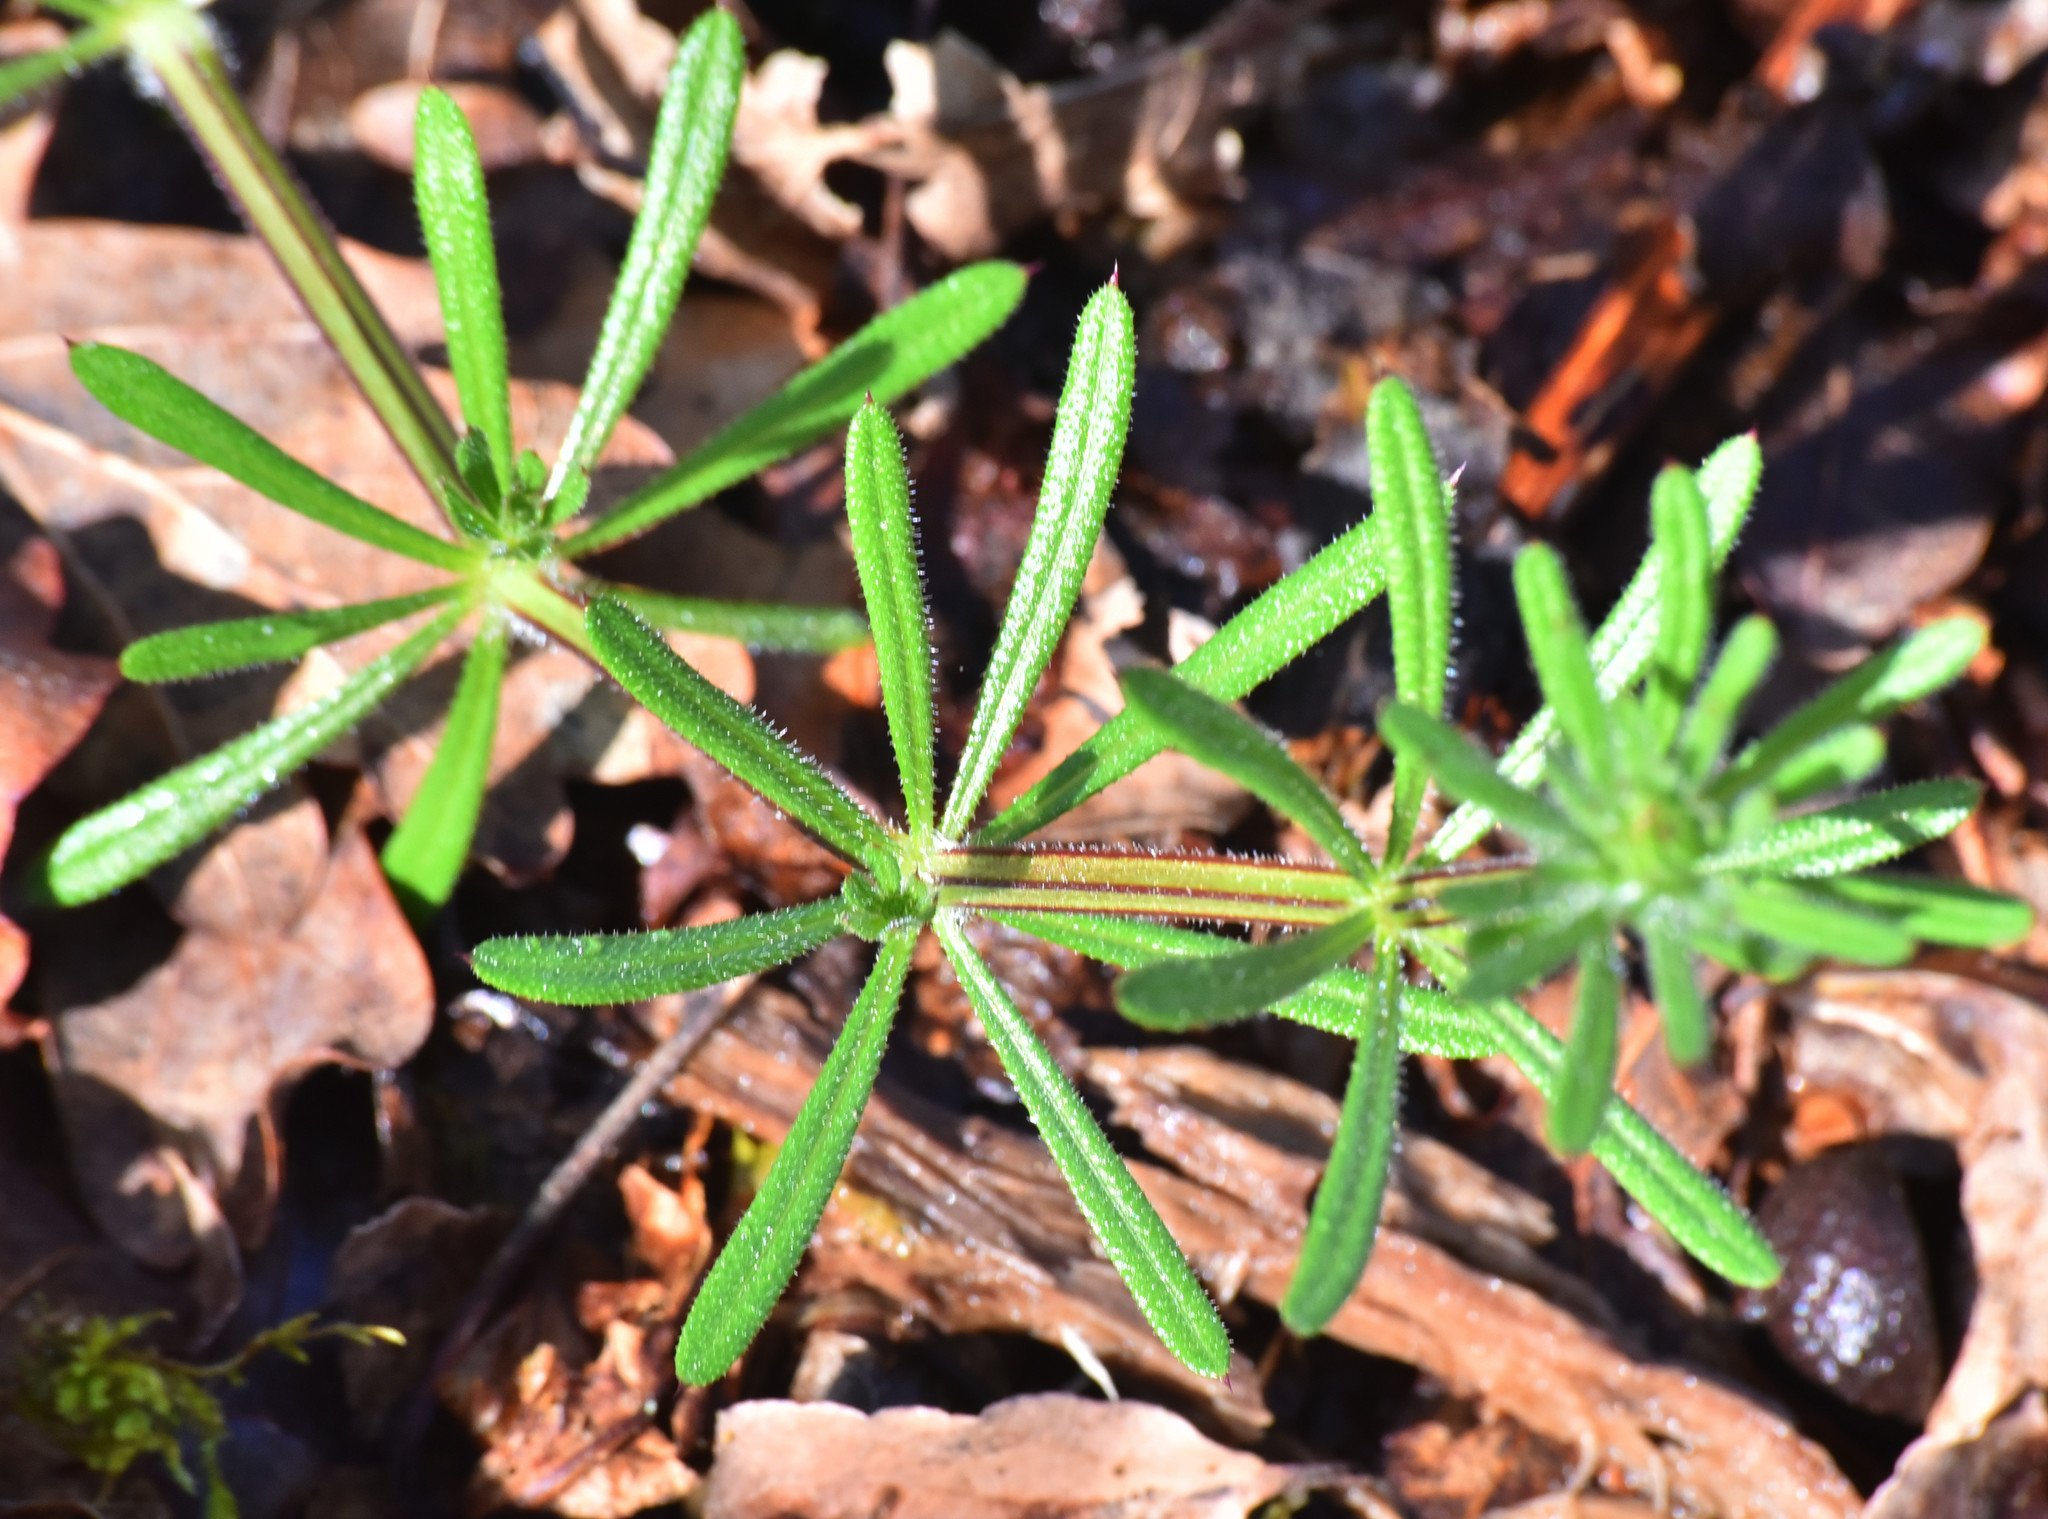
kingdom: Plantae
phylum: Tracheophyta
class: Magnoliopsida
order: Gentianales
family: Rubiaceae
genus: Galium
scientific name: Galium aparine
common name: Cleavers
